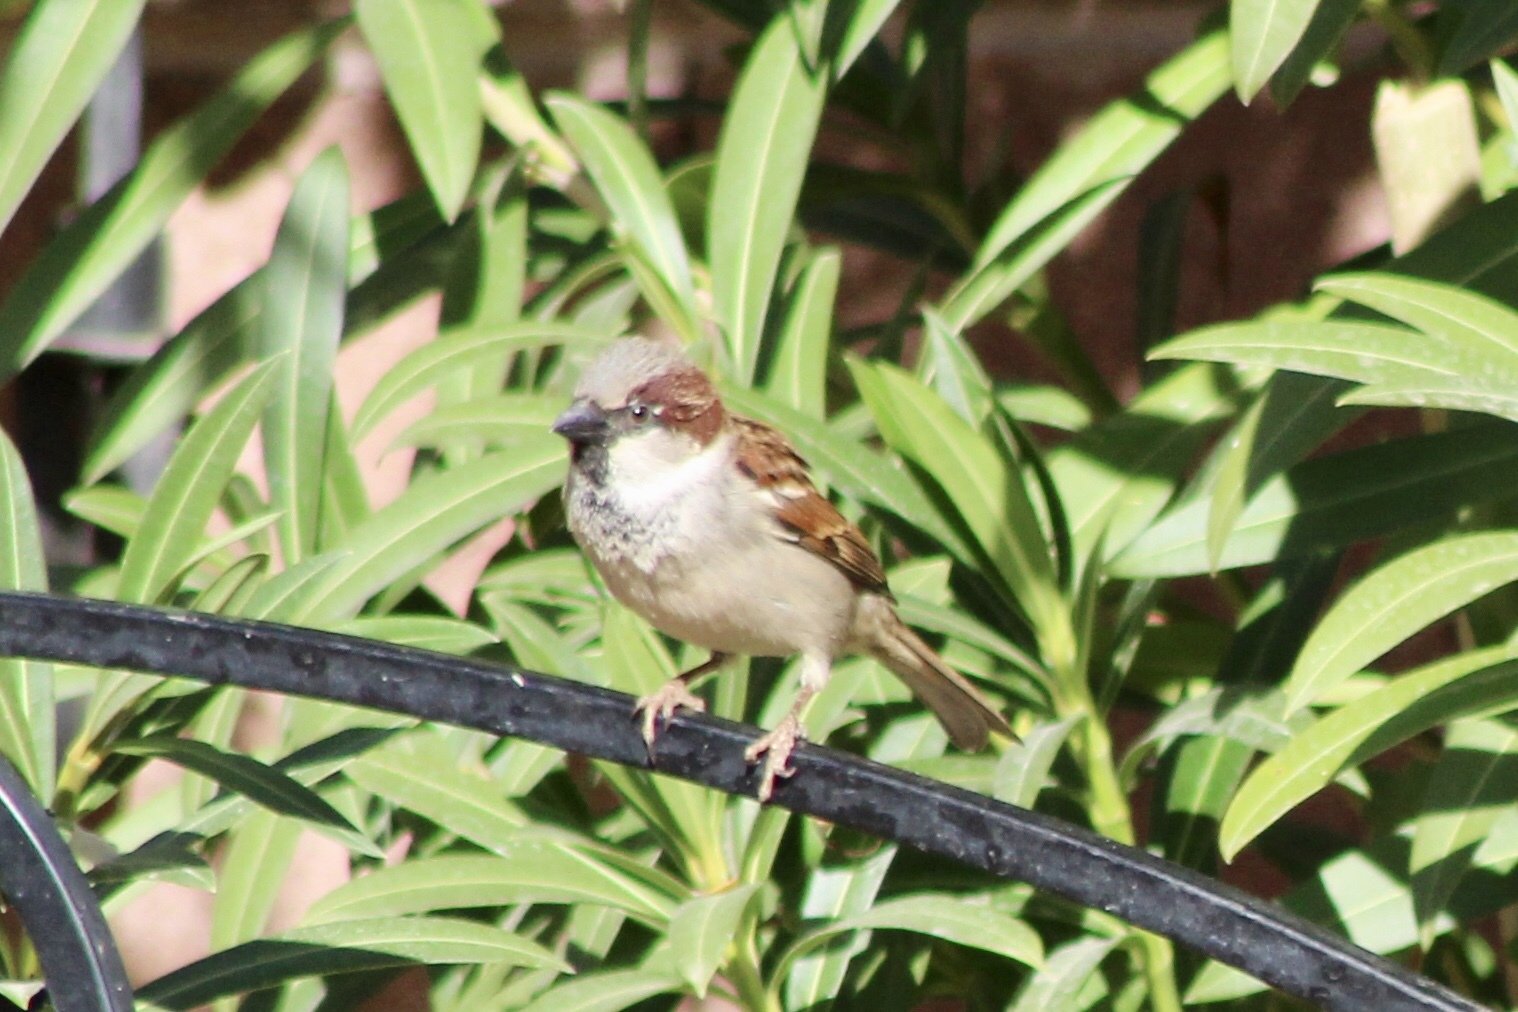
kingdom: Animalia
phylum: Chordata
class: Aves
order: Passeriformes
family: Passeridae
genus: Passer
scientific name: Passer domesticus
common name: House sparrow
